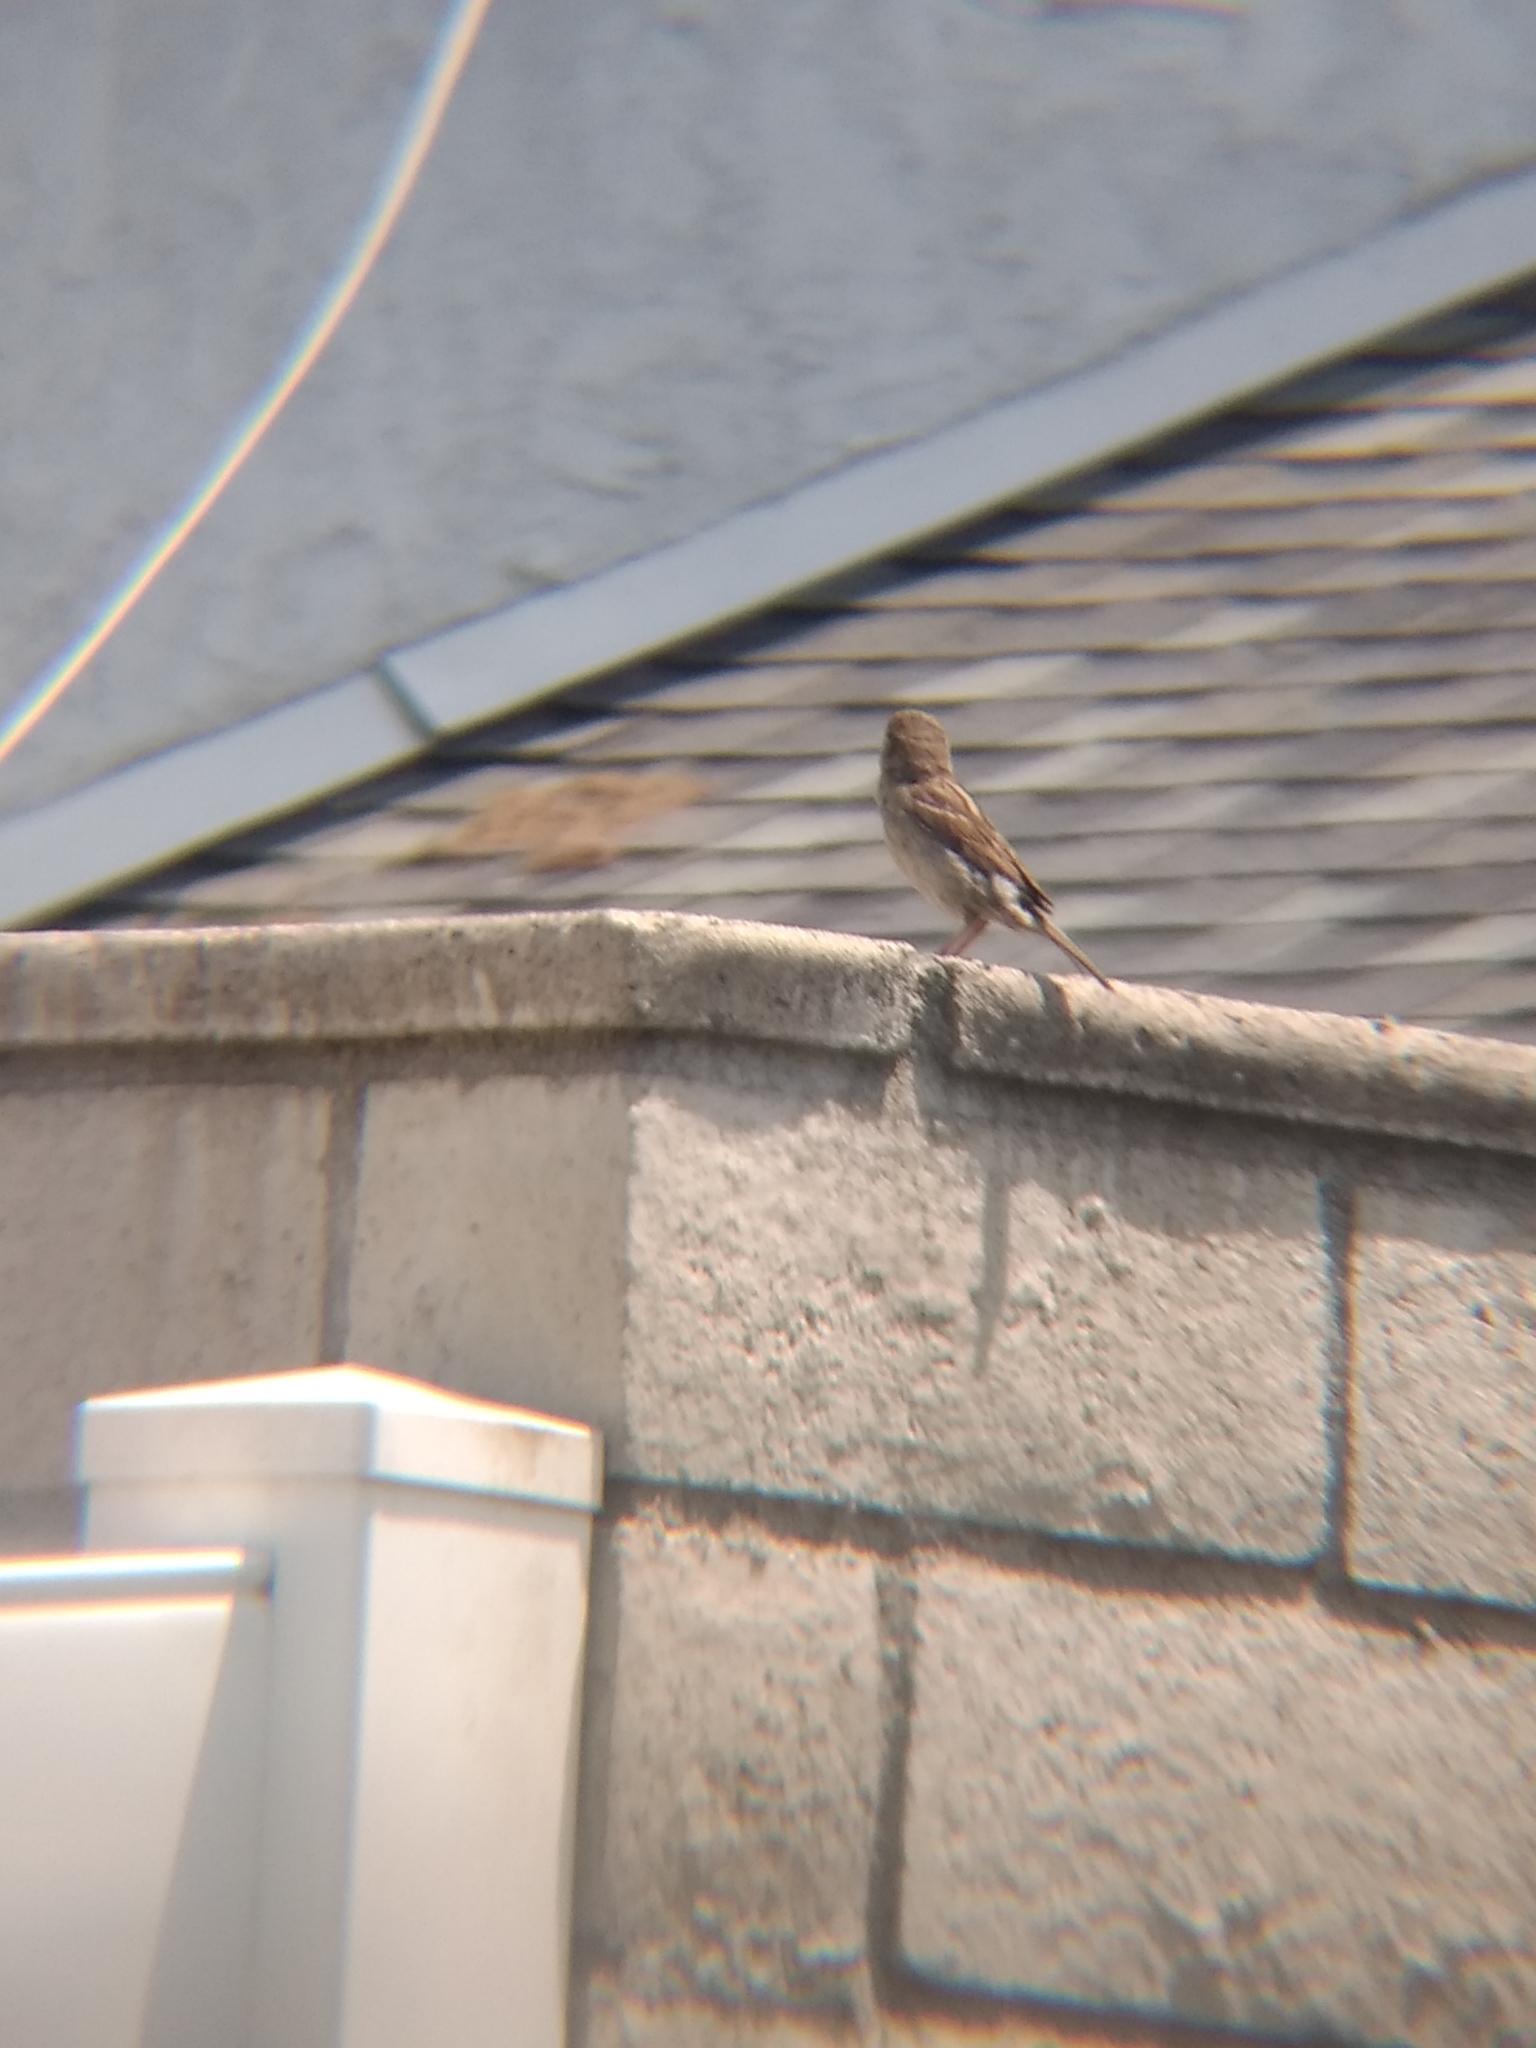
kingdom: Animalia
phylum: Chordata
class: Aves
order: Passeriformes
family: Passeridae
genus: Passer
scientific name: Passer domesticus
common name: House sparrow
